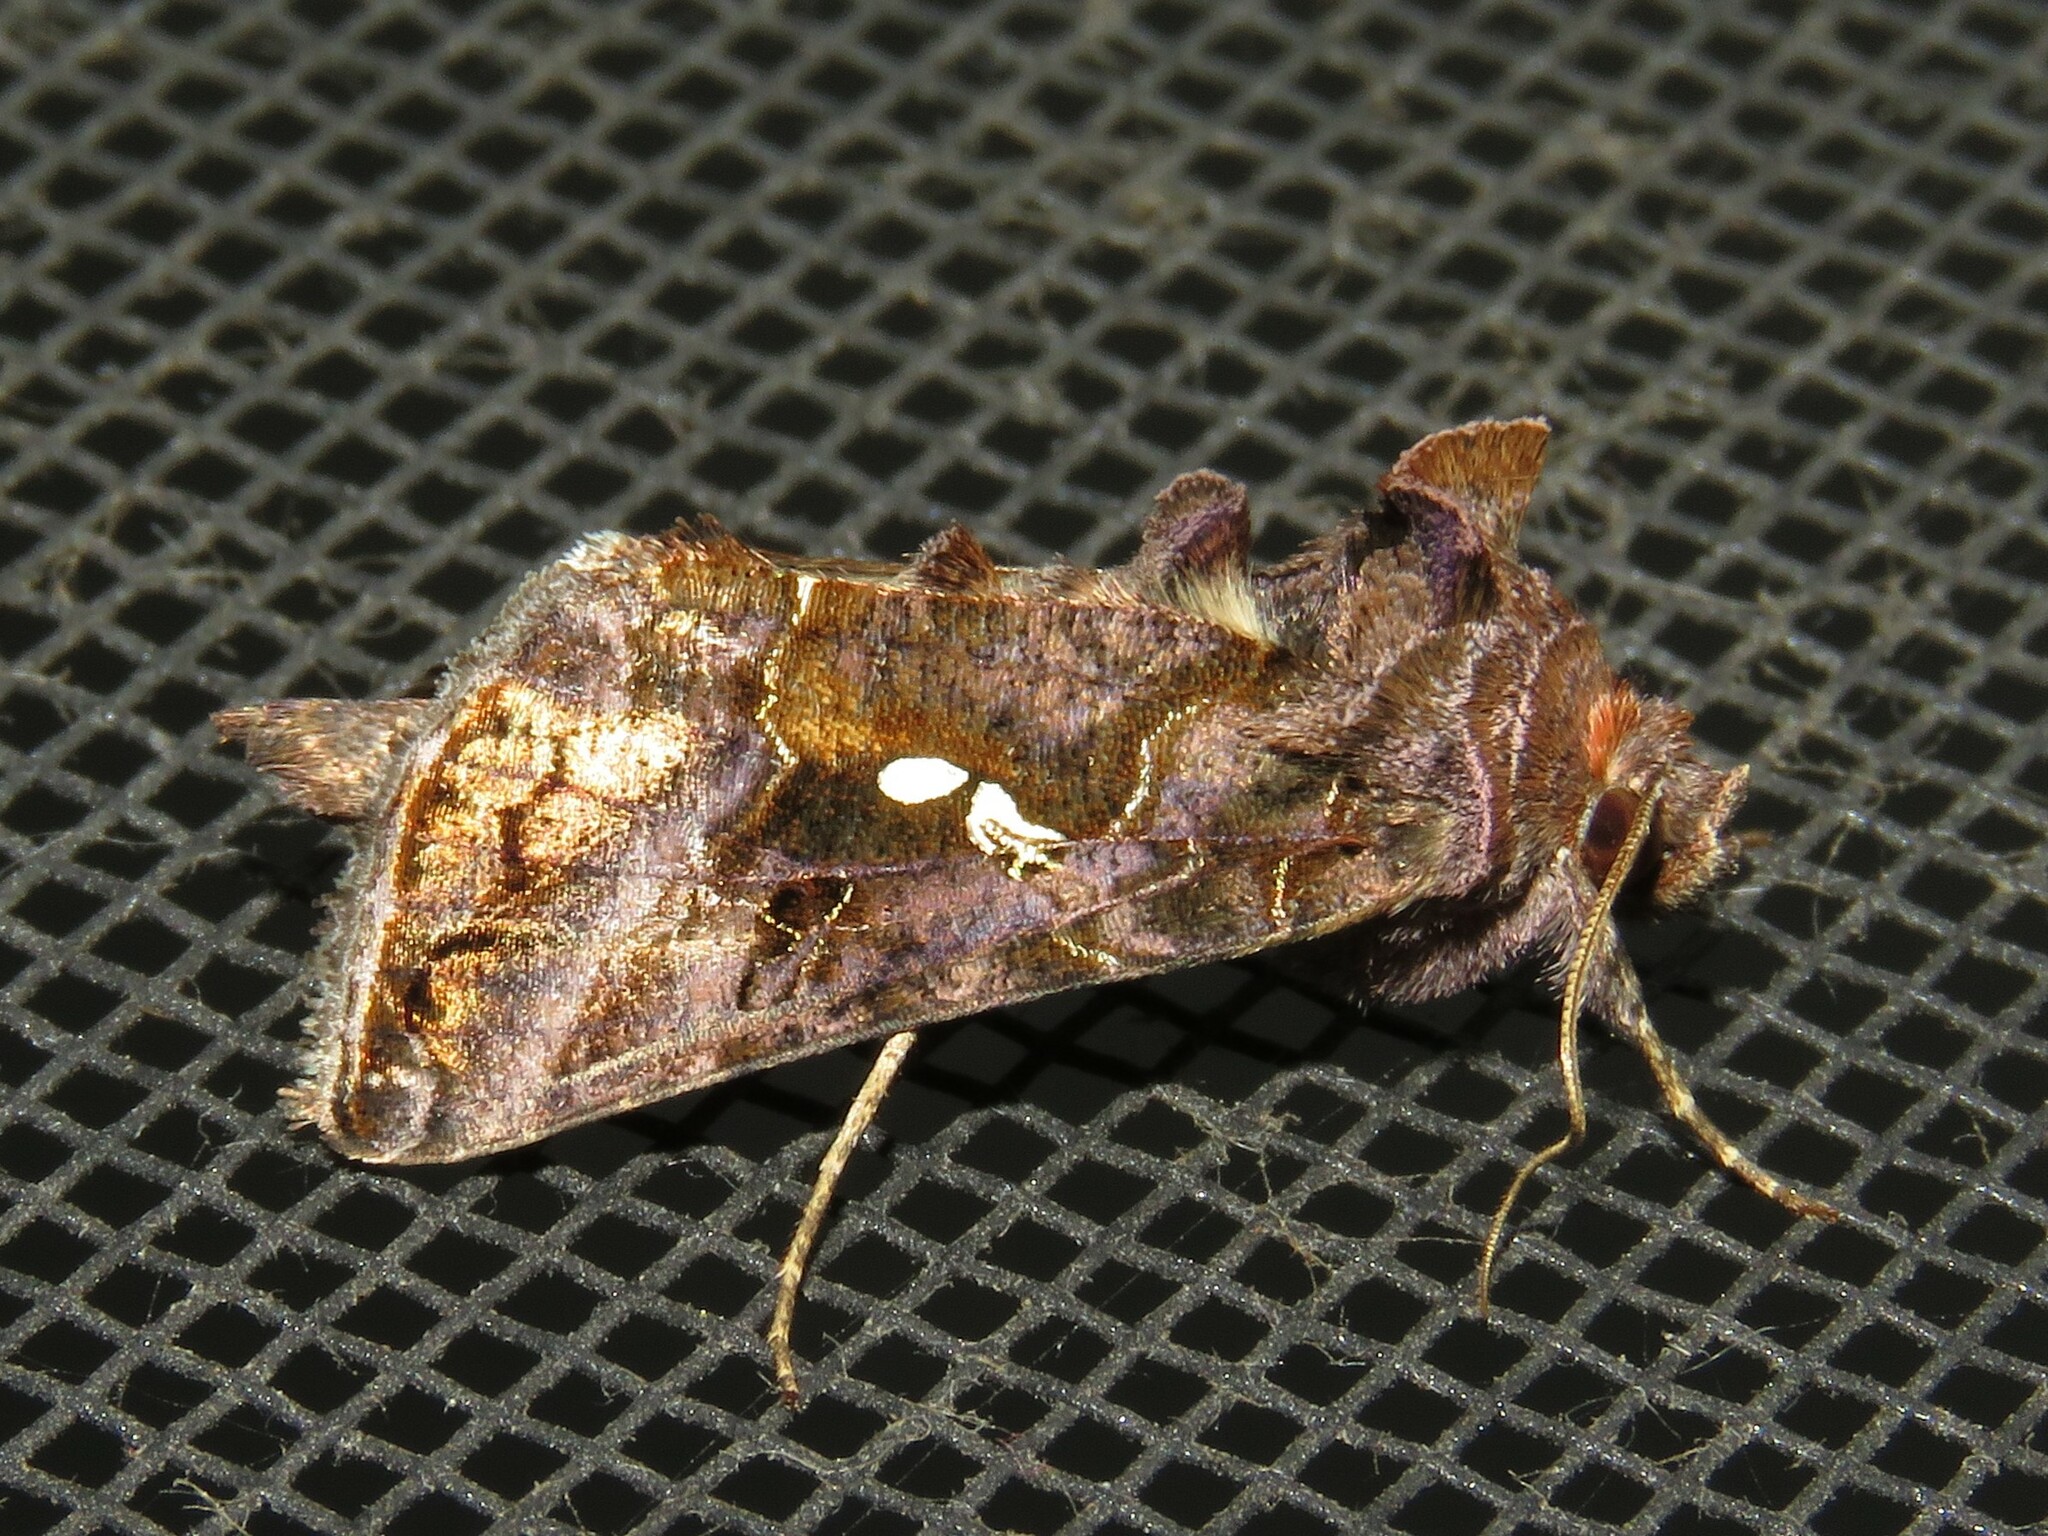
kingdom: Animalia
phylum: Arthropoda
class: Insecta
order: Lepidoptera
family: Noctuidae
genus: Autographa
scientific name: Autographa precationis
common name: Common looper moth
